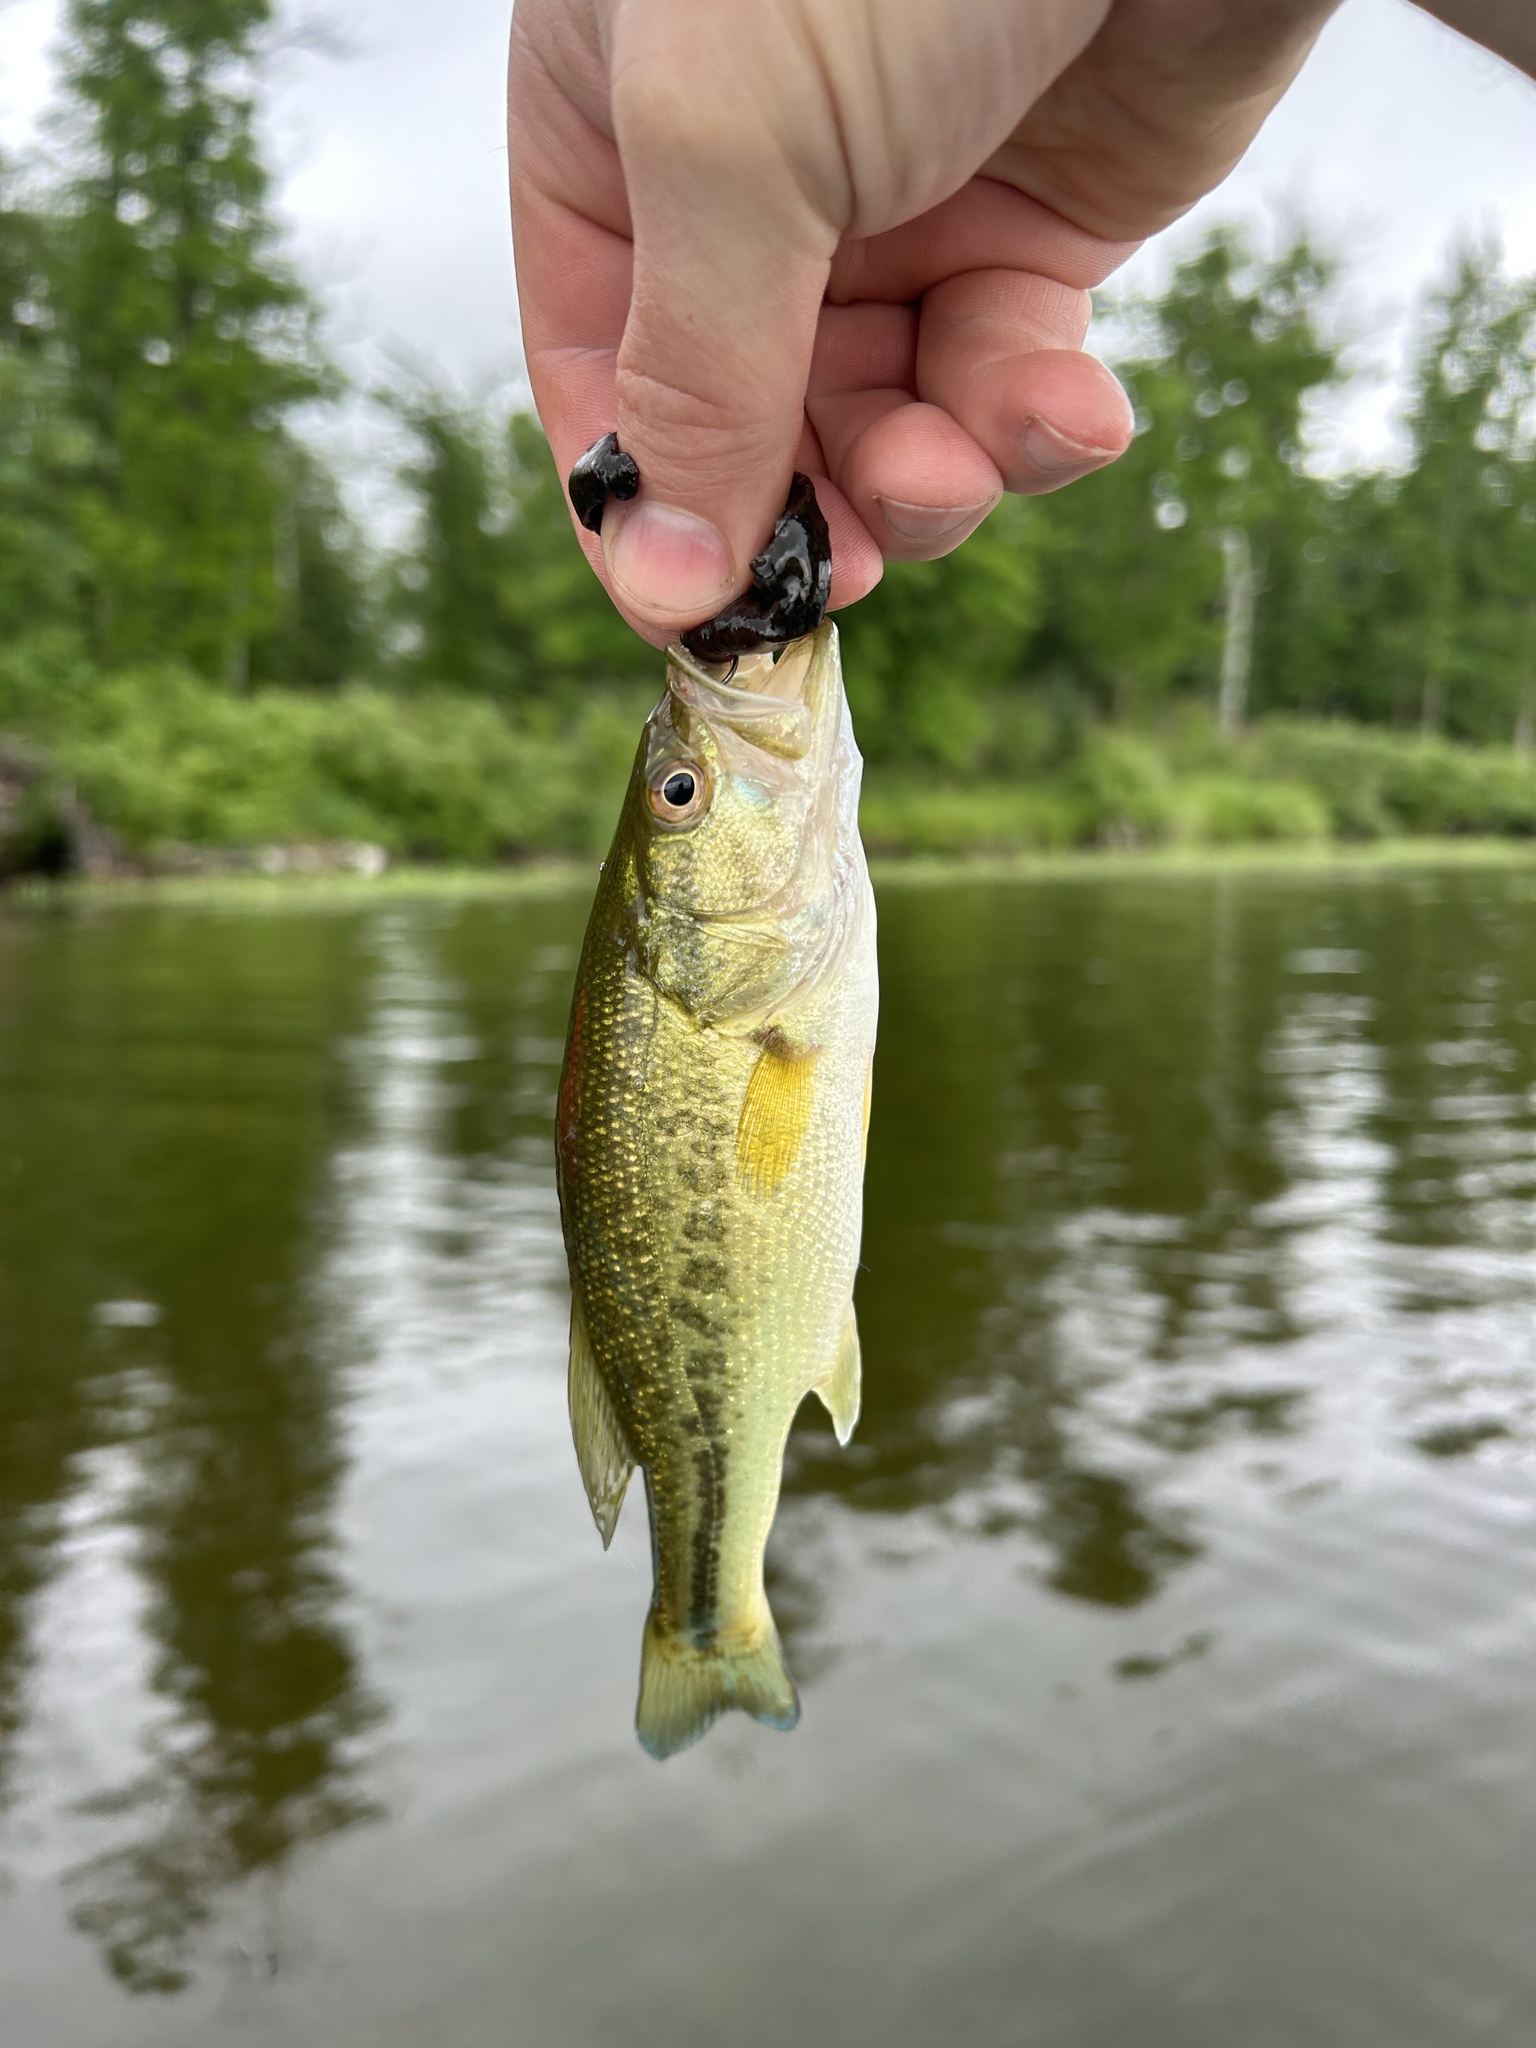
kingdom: Animalia
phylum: Chordata
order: Perciformes
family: Centrarchidae
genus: Micropterus
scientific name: Micropterus
